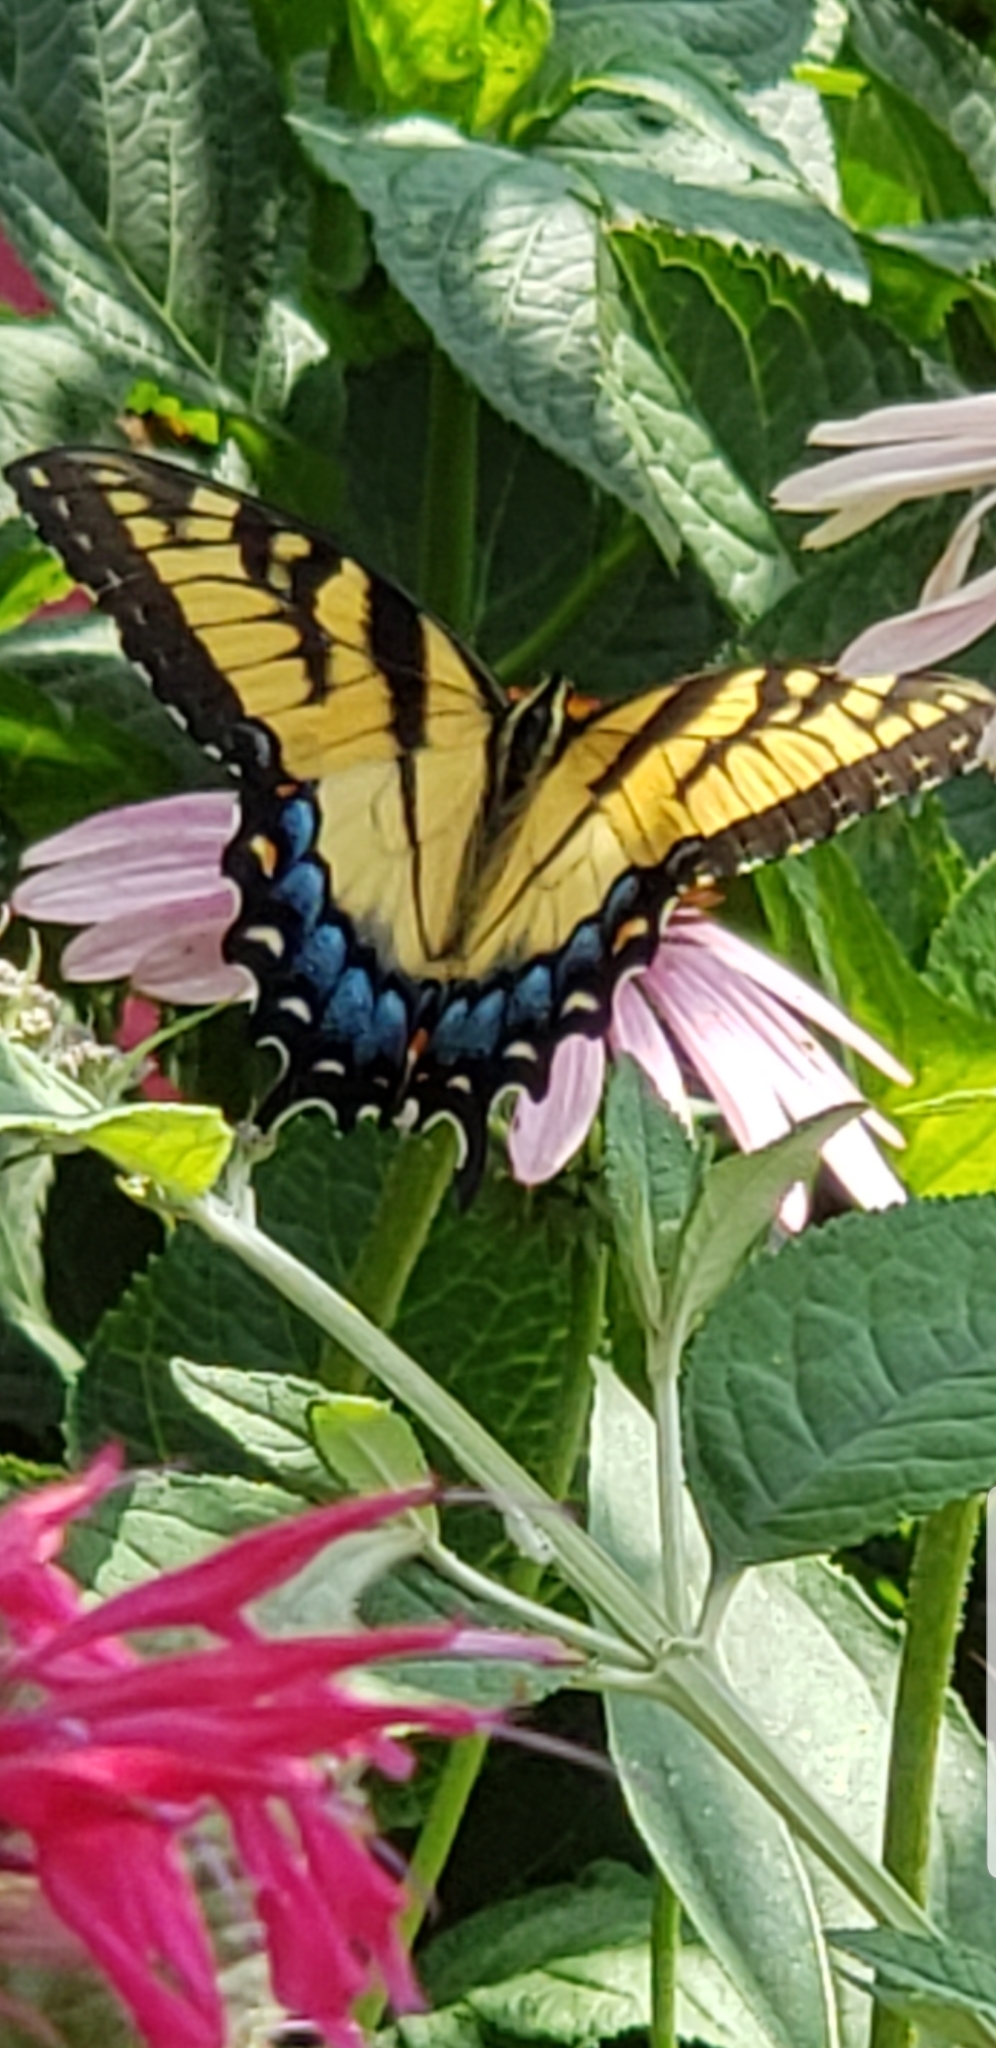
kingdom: Animalia
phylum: Arthropoda
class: Insecta
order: Lepidoptera
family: Papilionidae
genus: Papilio
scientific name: Papilio glaucus
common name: Tiger swallowtail
